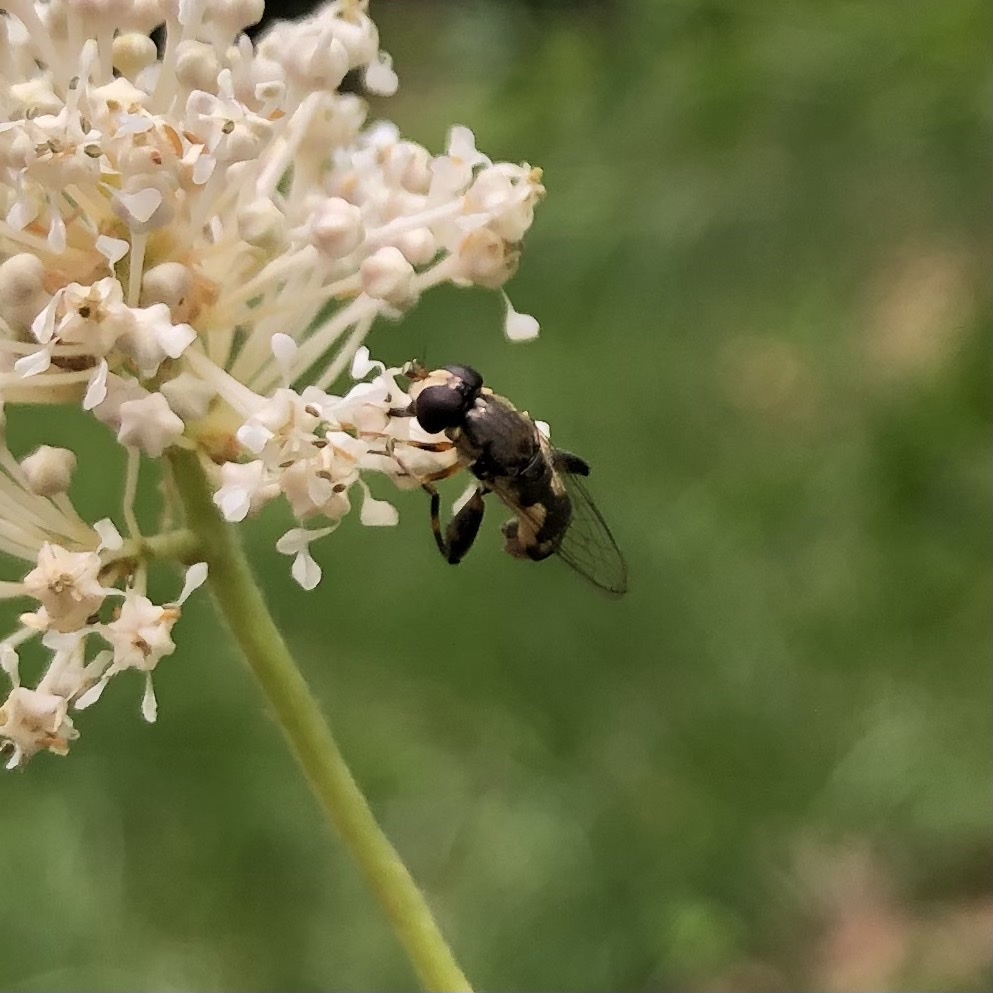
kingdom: Animalia
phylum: Arthropoda
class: Insecta
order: Diptera
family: Syrphidae
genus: Syritta
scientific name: Syritta pipiens
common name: Hover fly
